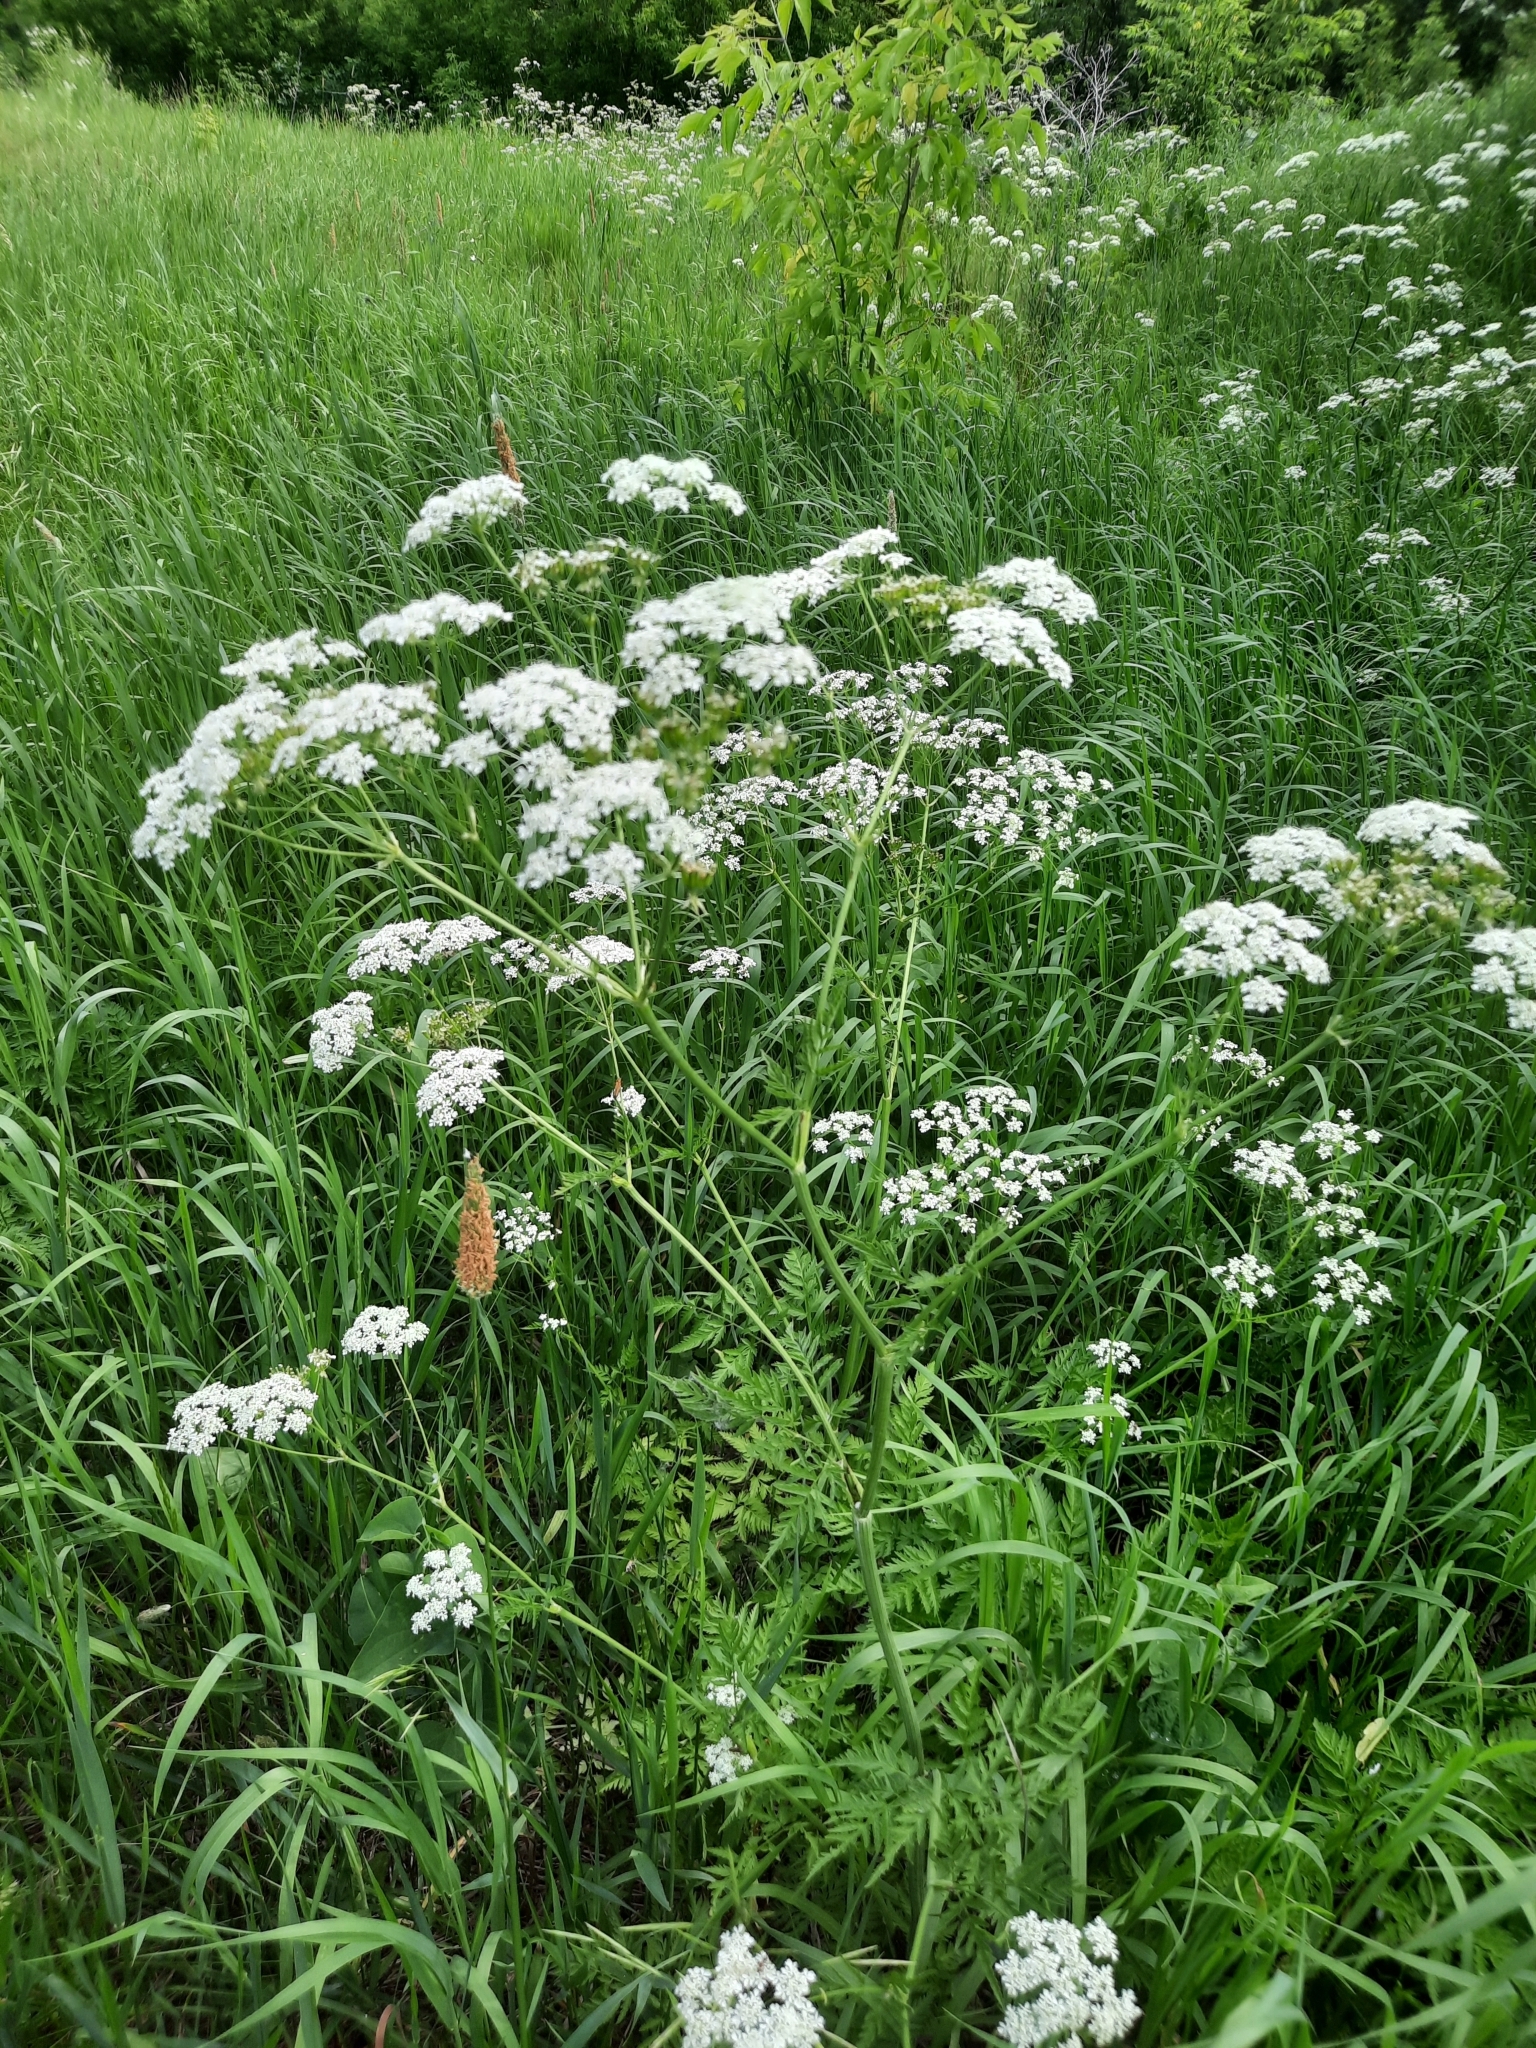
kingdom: Plantae
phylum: Tracheophyta
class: Magnoliopsida
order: Apiales
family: Apiaceae
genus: Anthriscus
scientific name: Anthriscus sylvestris
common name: Cow parsley
